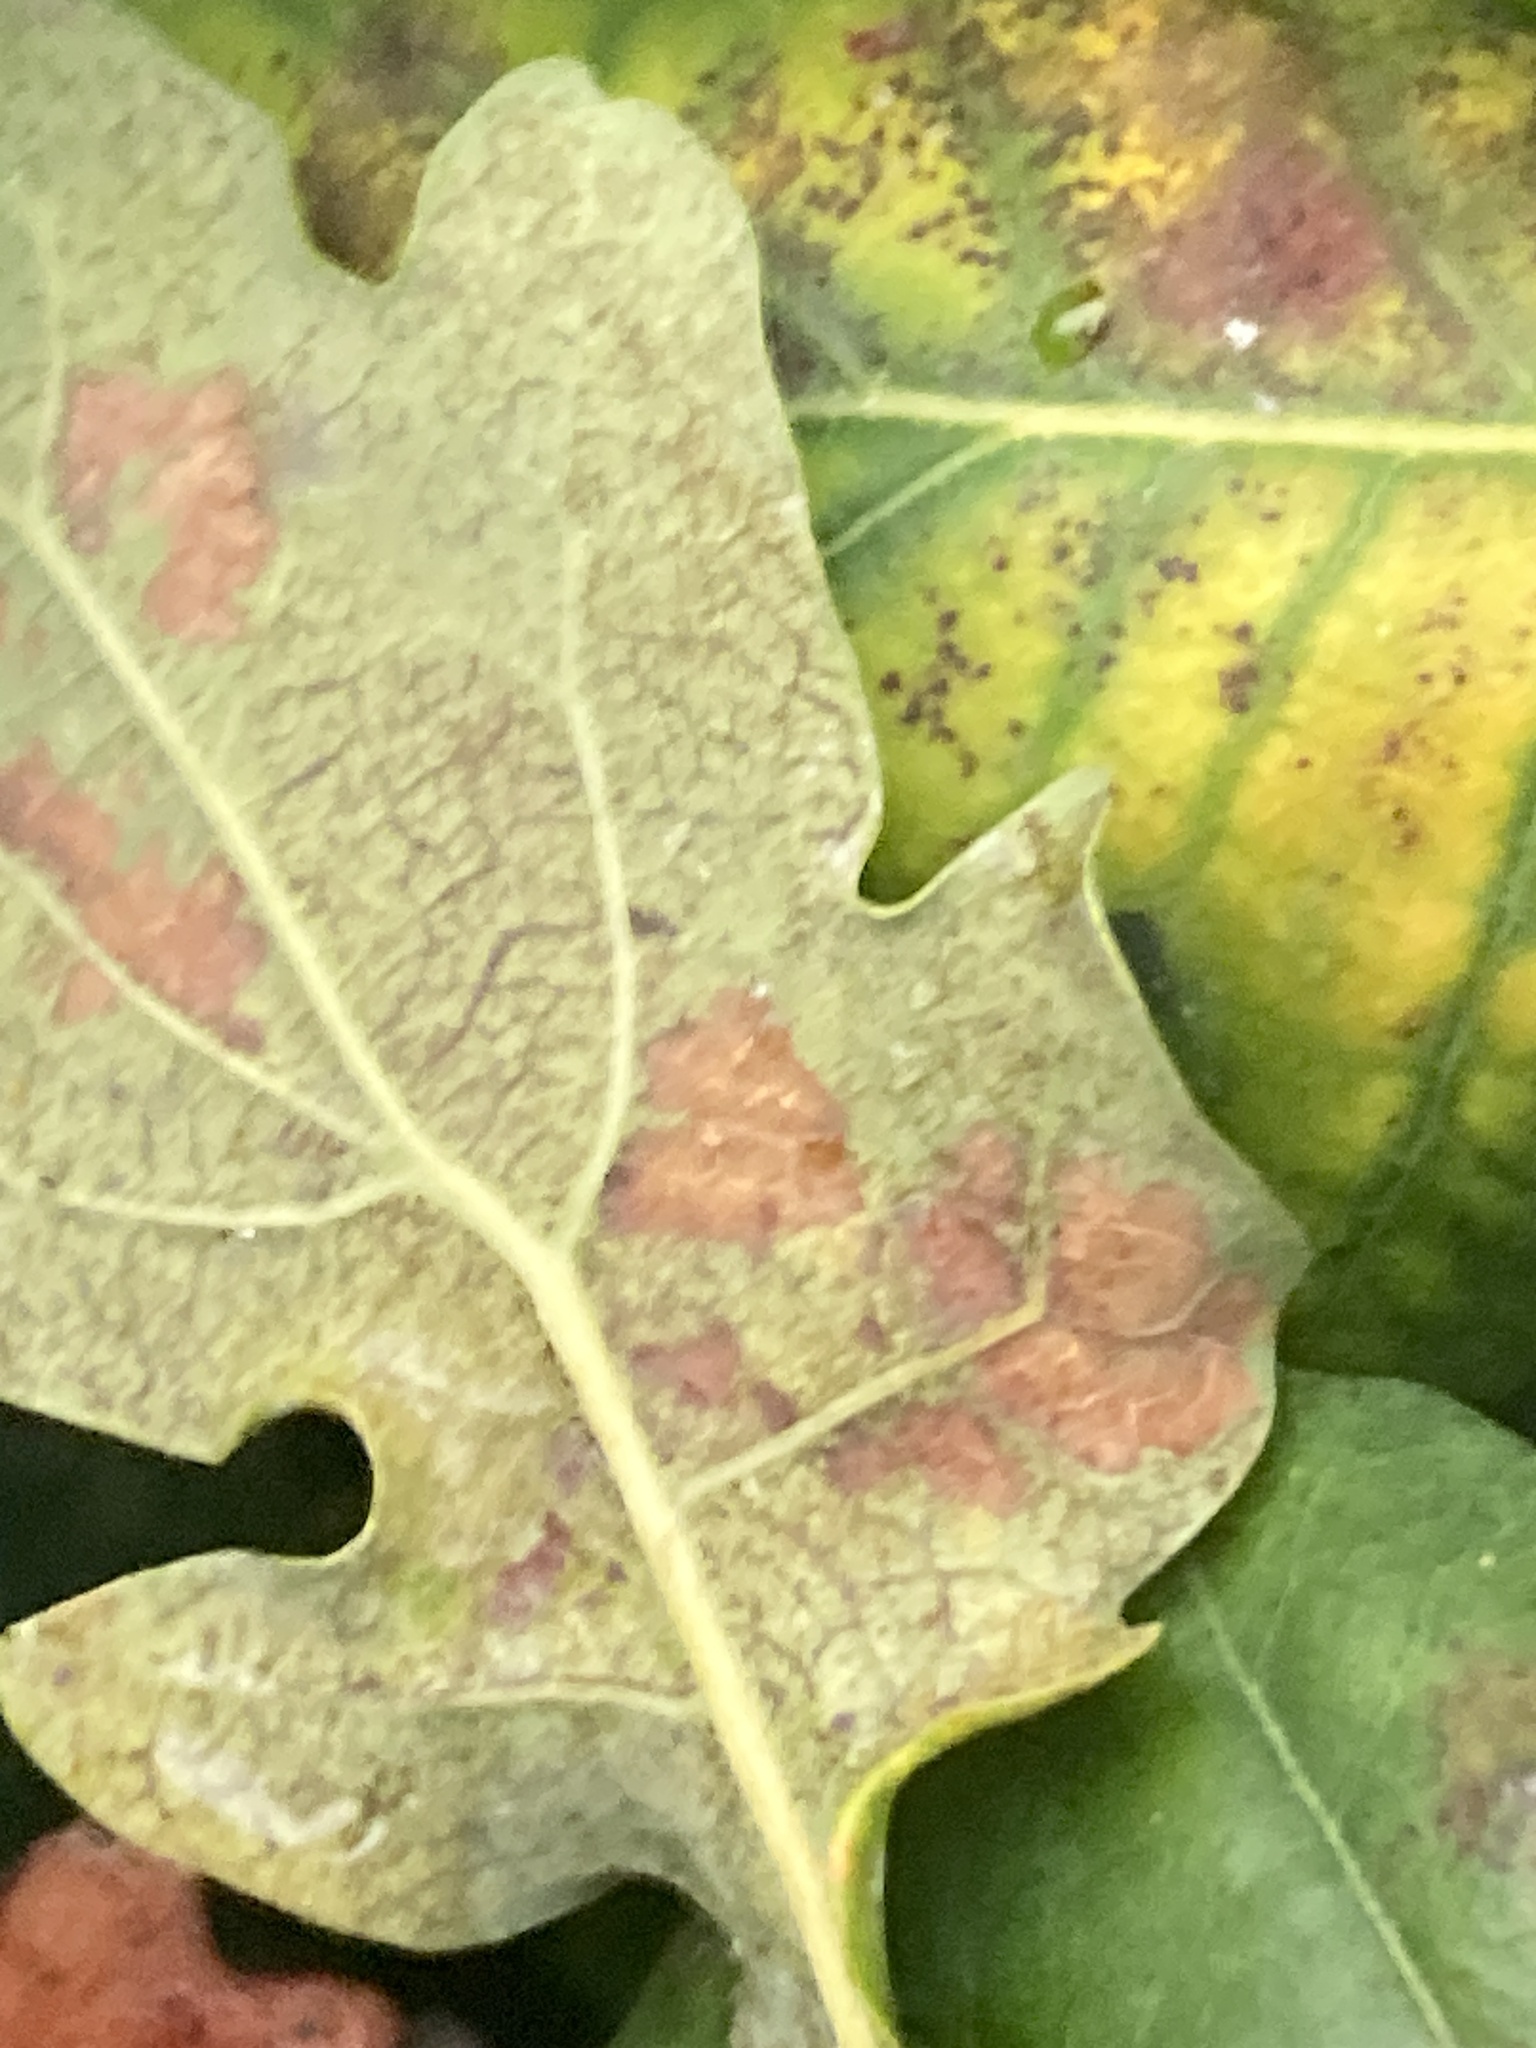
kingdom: Fungi
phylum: Ascomycota
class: Leotiomycetes
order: Helotiales
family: Erysiphaceae
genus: Erysiphe
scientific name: Erysiphe alphitoides
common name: Oak mildew
